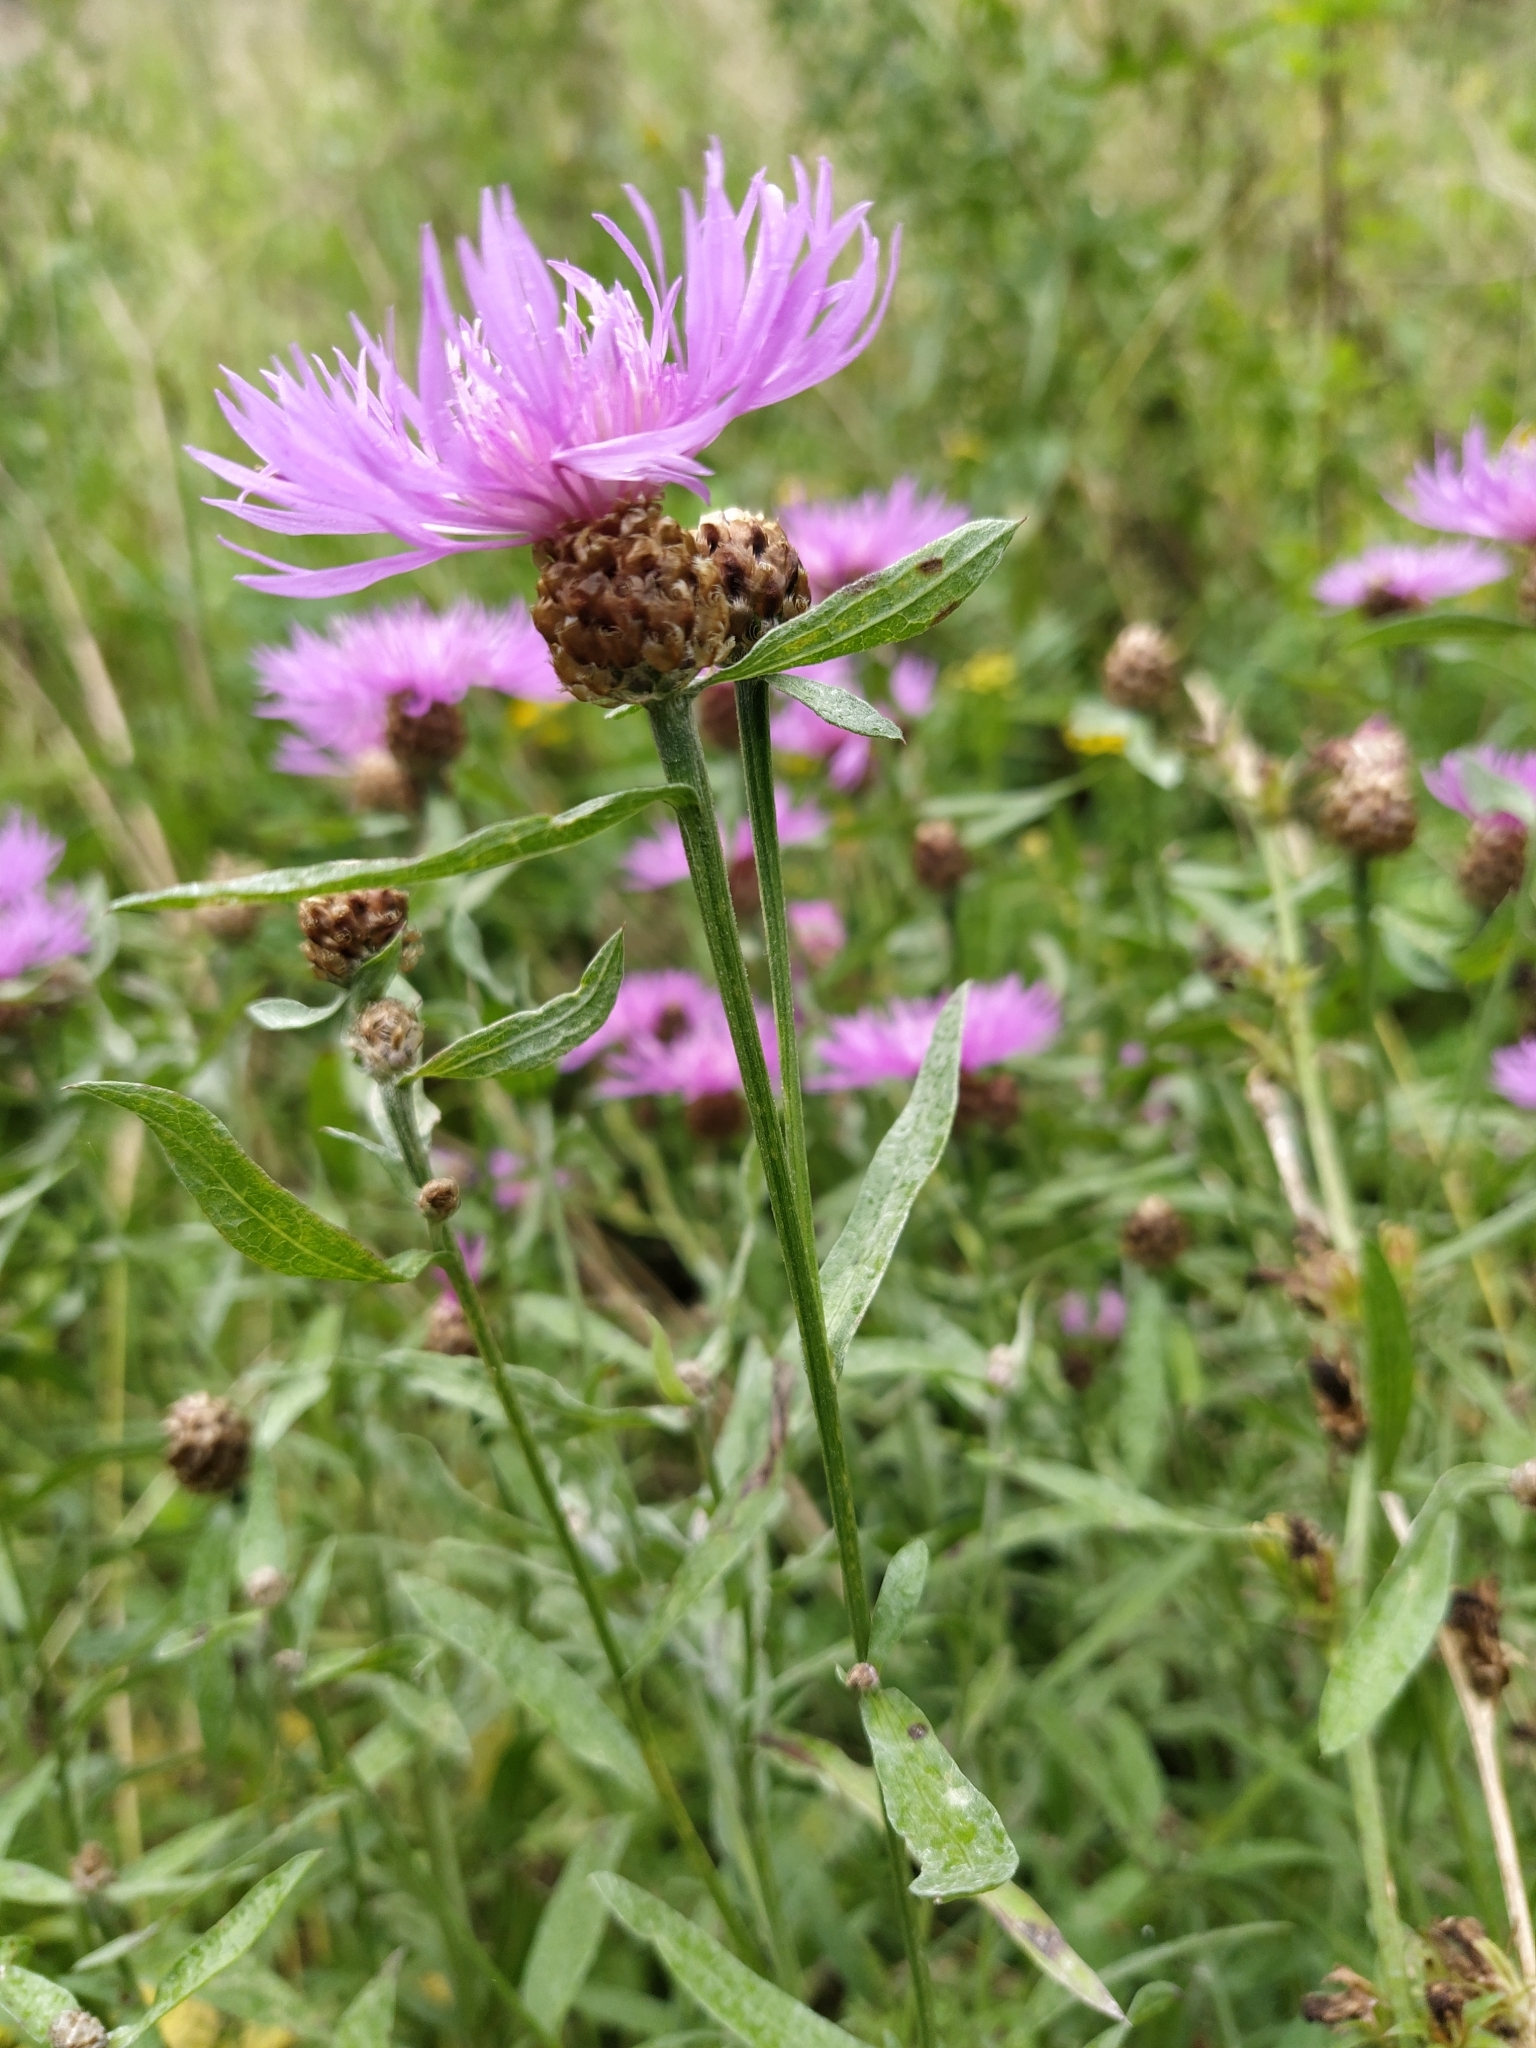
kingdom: Plantae
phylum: Tracheophyta
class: Magnoliopsida
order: Asterales
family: Asteraceae
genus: Centaurea
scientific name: Centaurea jacea
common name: Brown knapweed
